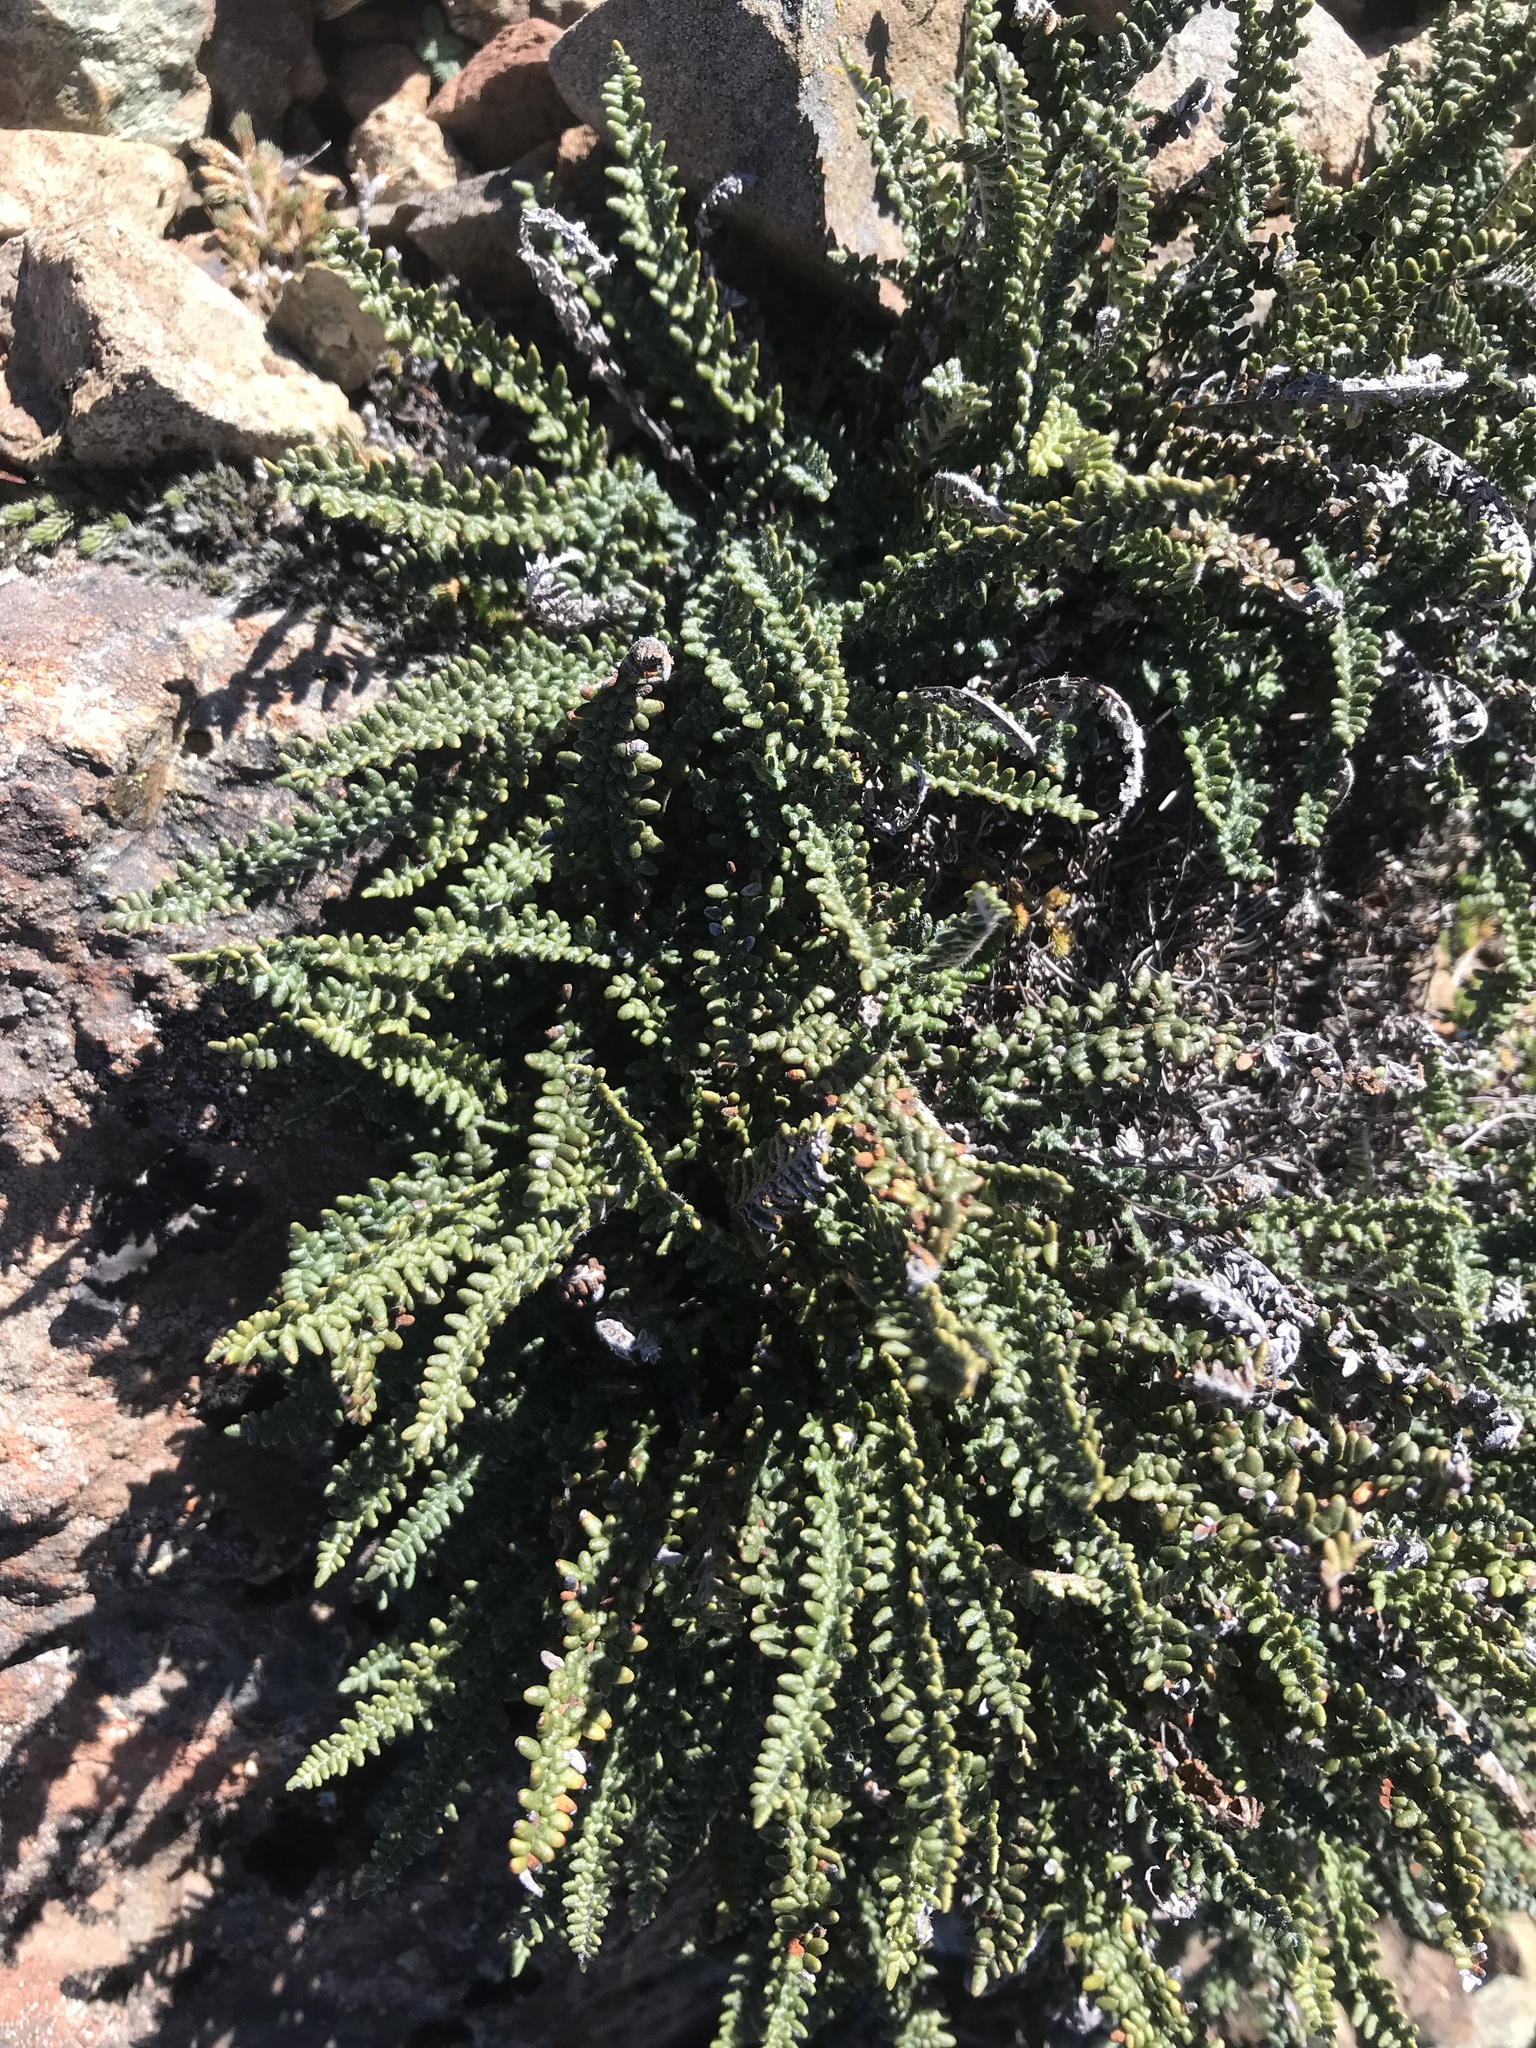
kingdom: Plantae
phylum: Tracheophyta
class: Polypodiopsida
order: Polypodiales
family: Pteridaceae
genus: Myriopteris
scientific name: Myriopteris gracillima
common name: Lace fern
